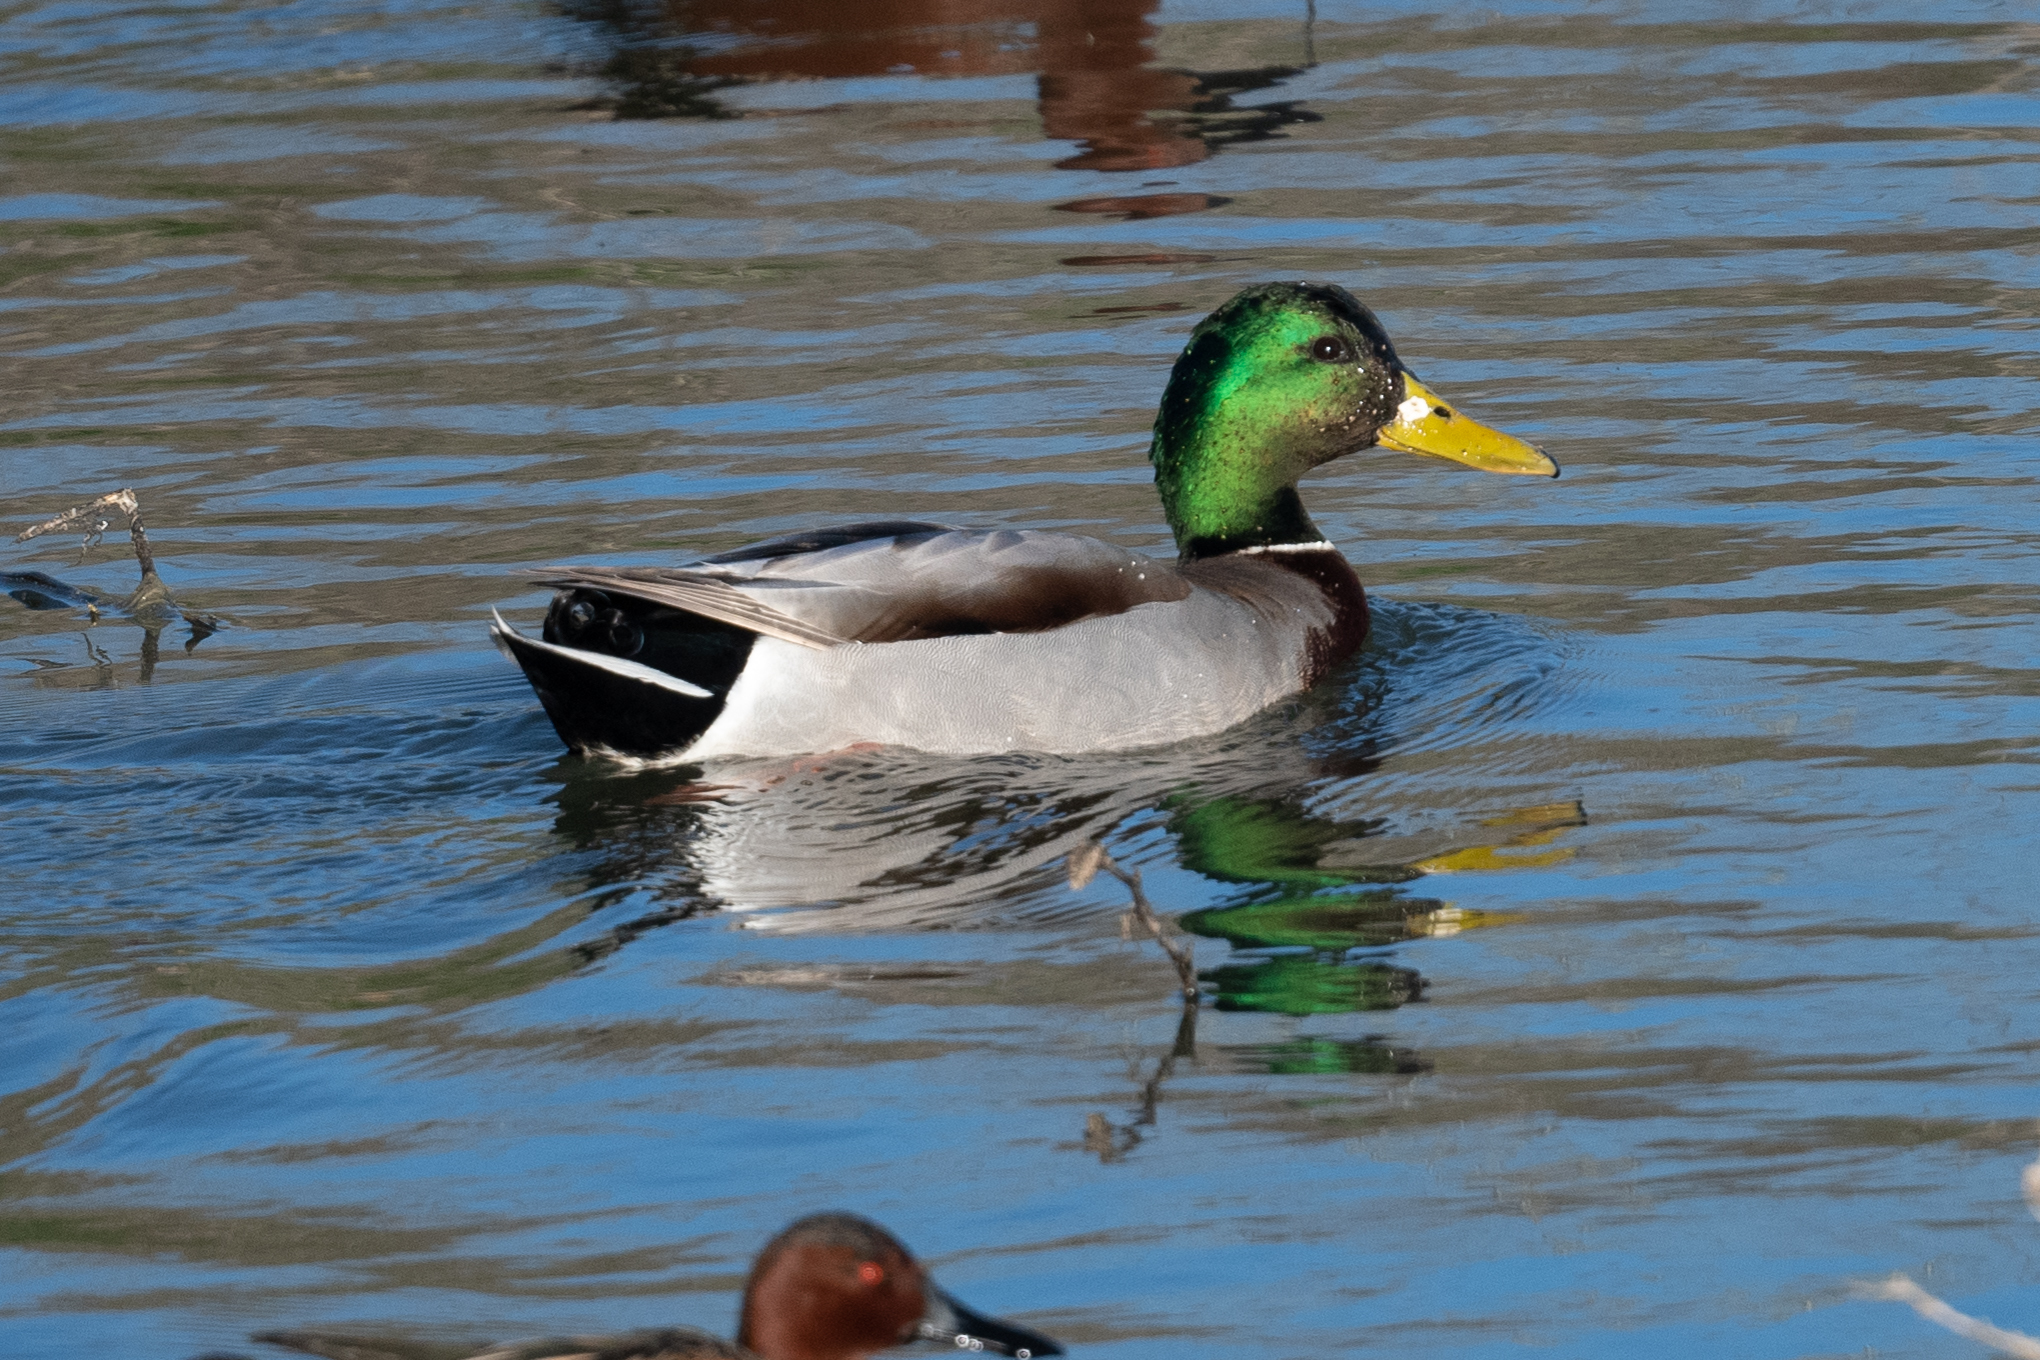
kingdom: Animalia
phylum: Chordata
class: Aves
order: Anseriformes
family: Anatidae
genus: Anas
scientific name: Anas platyrhynchos
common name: Mallard
